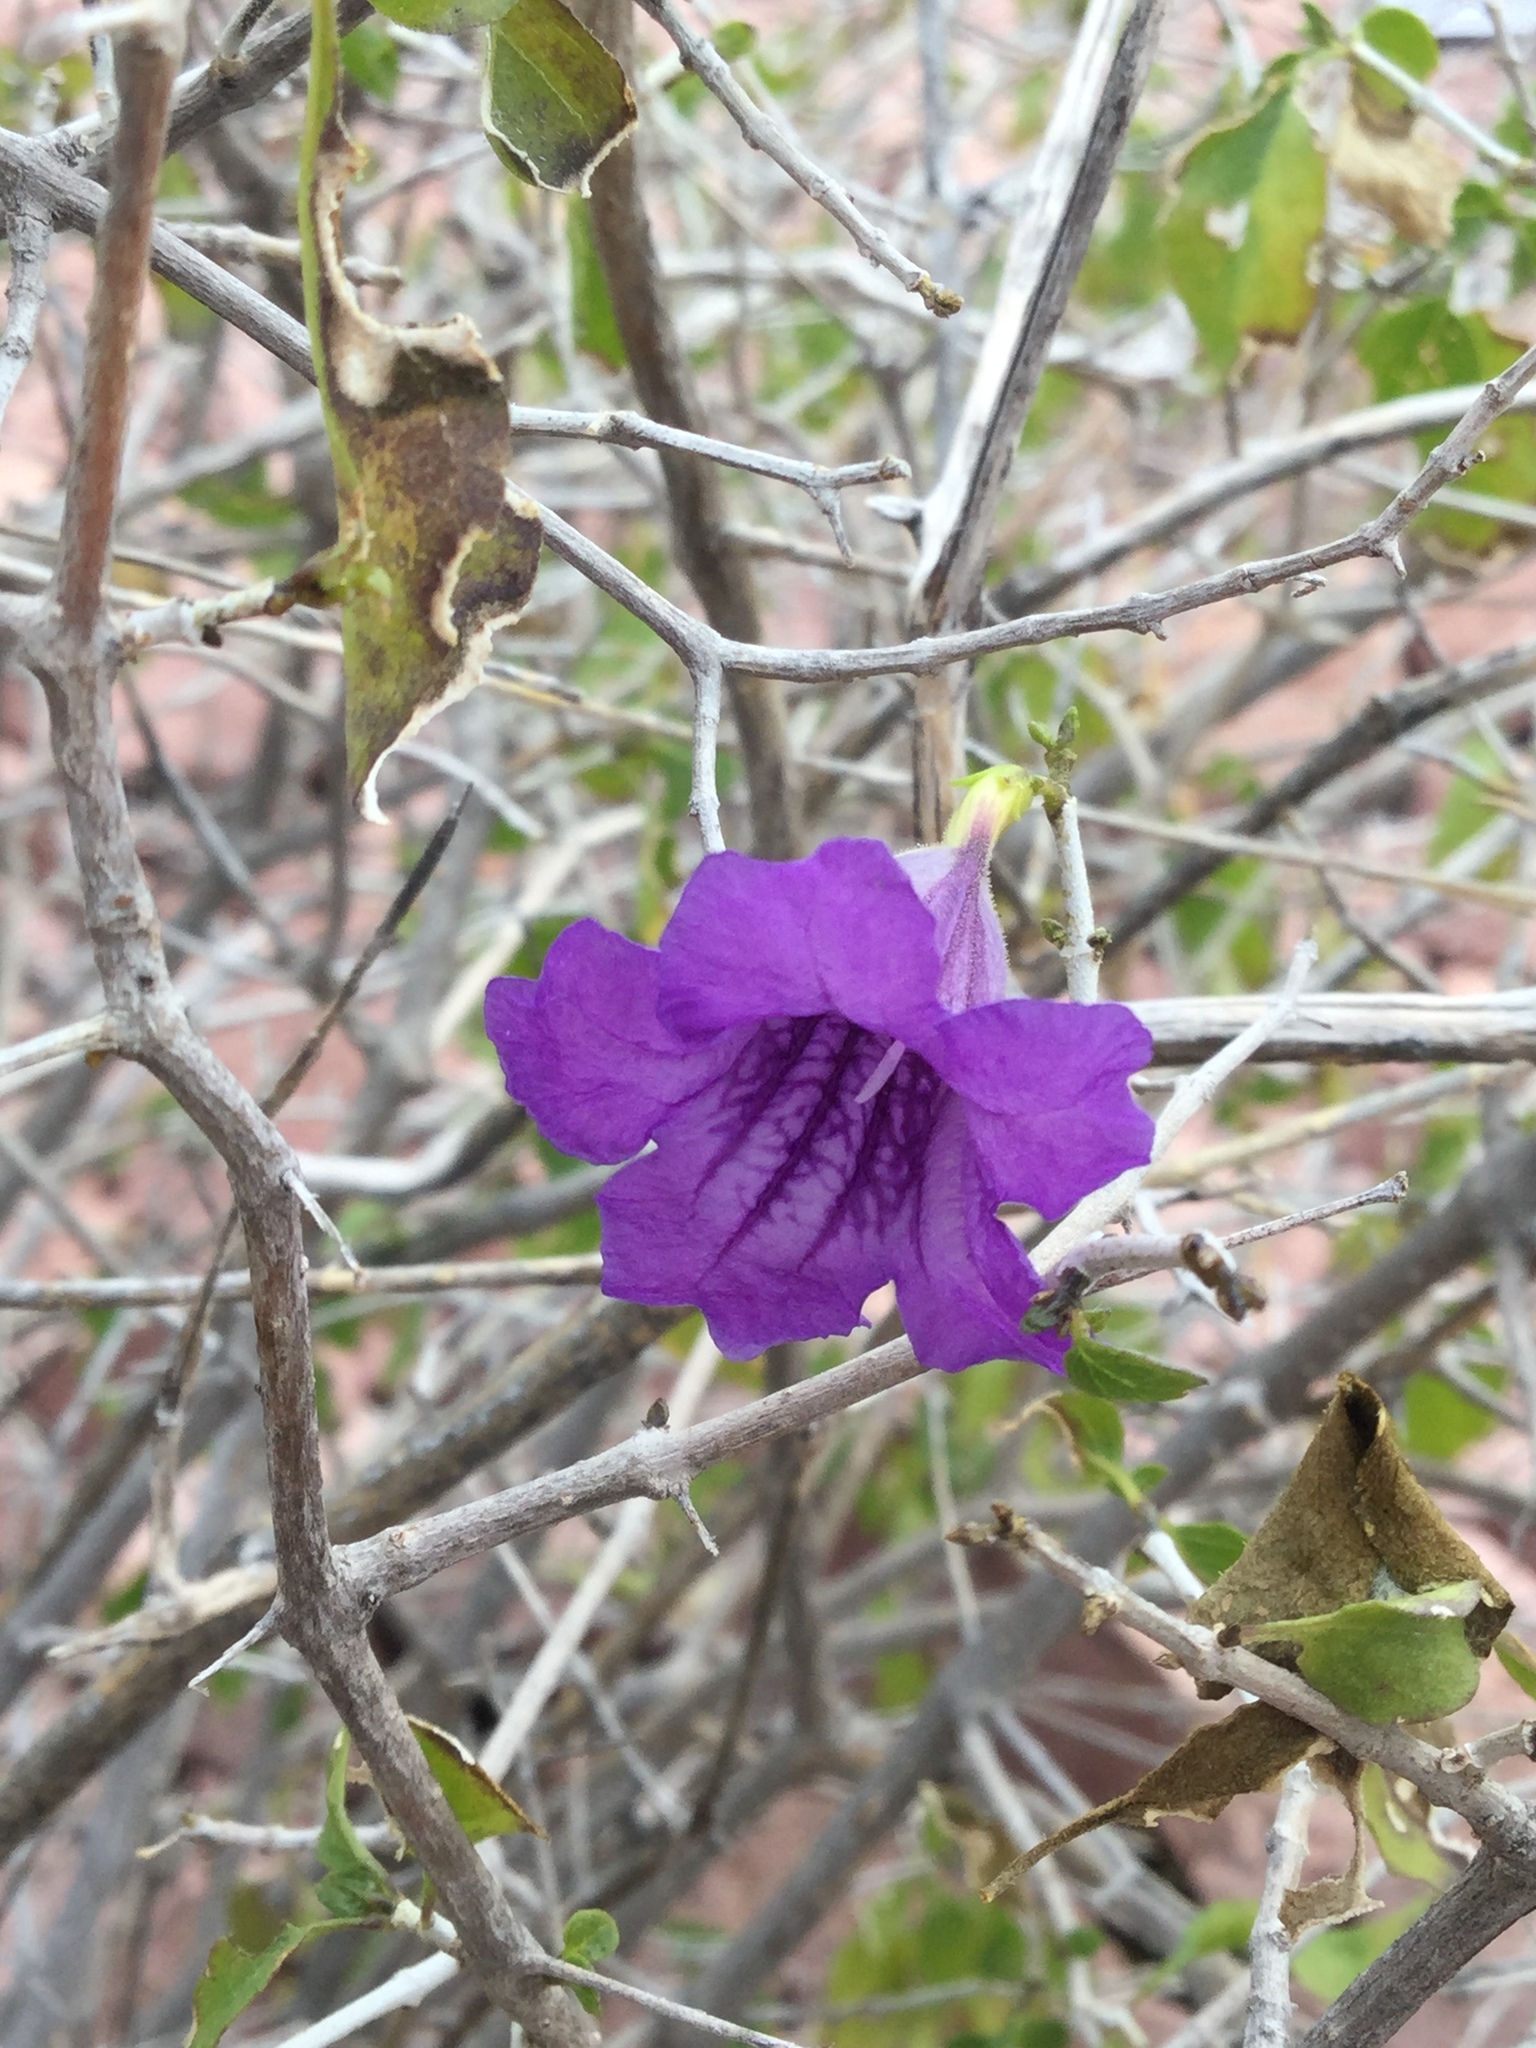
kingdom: Plantae
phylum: Tracheophyta
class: Magnoliopsida
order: Lamiales
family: Acanthaceae
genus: Ruellia
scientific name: Ruellia californica
